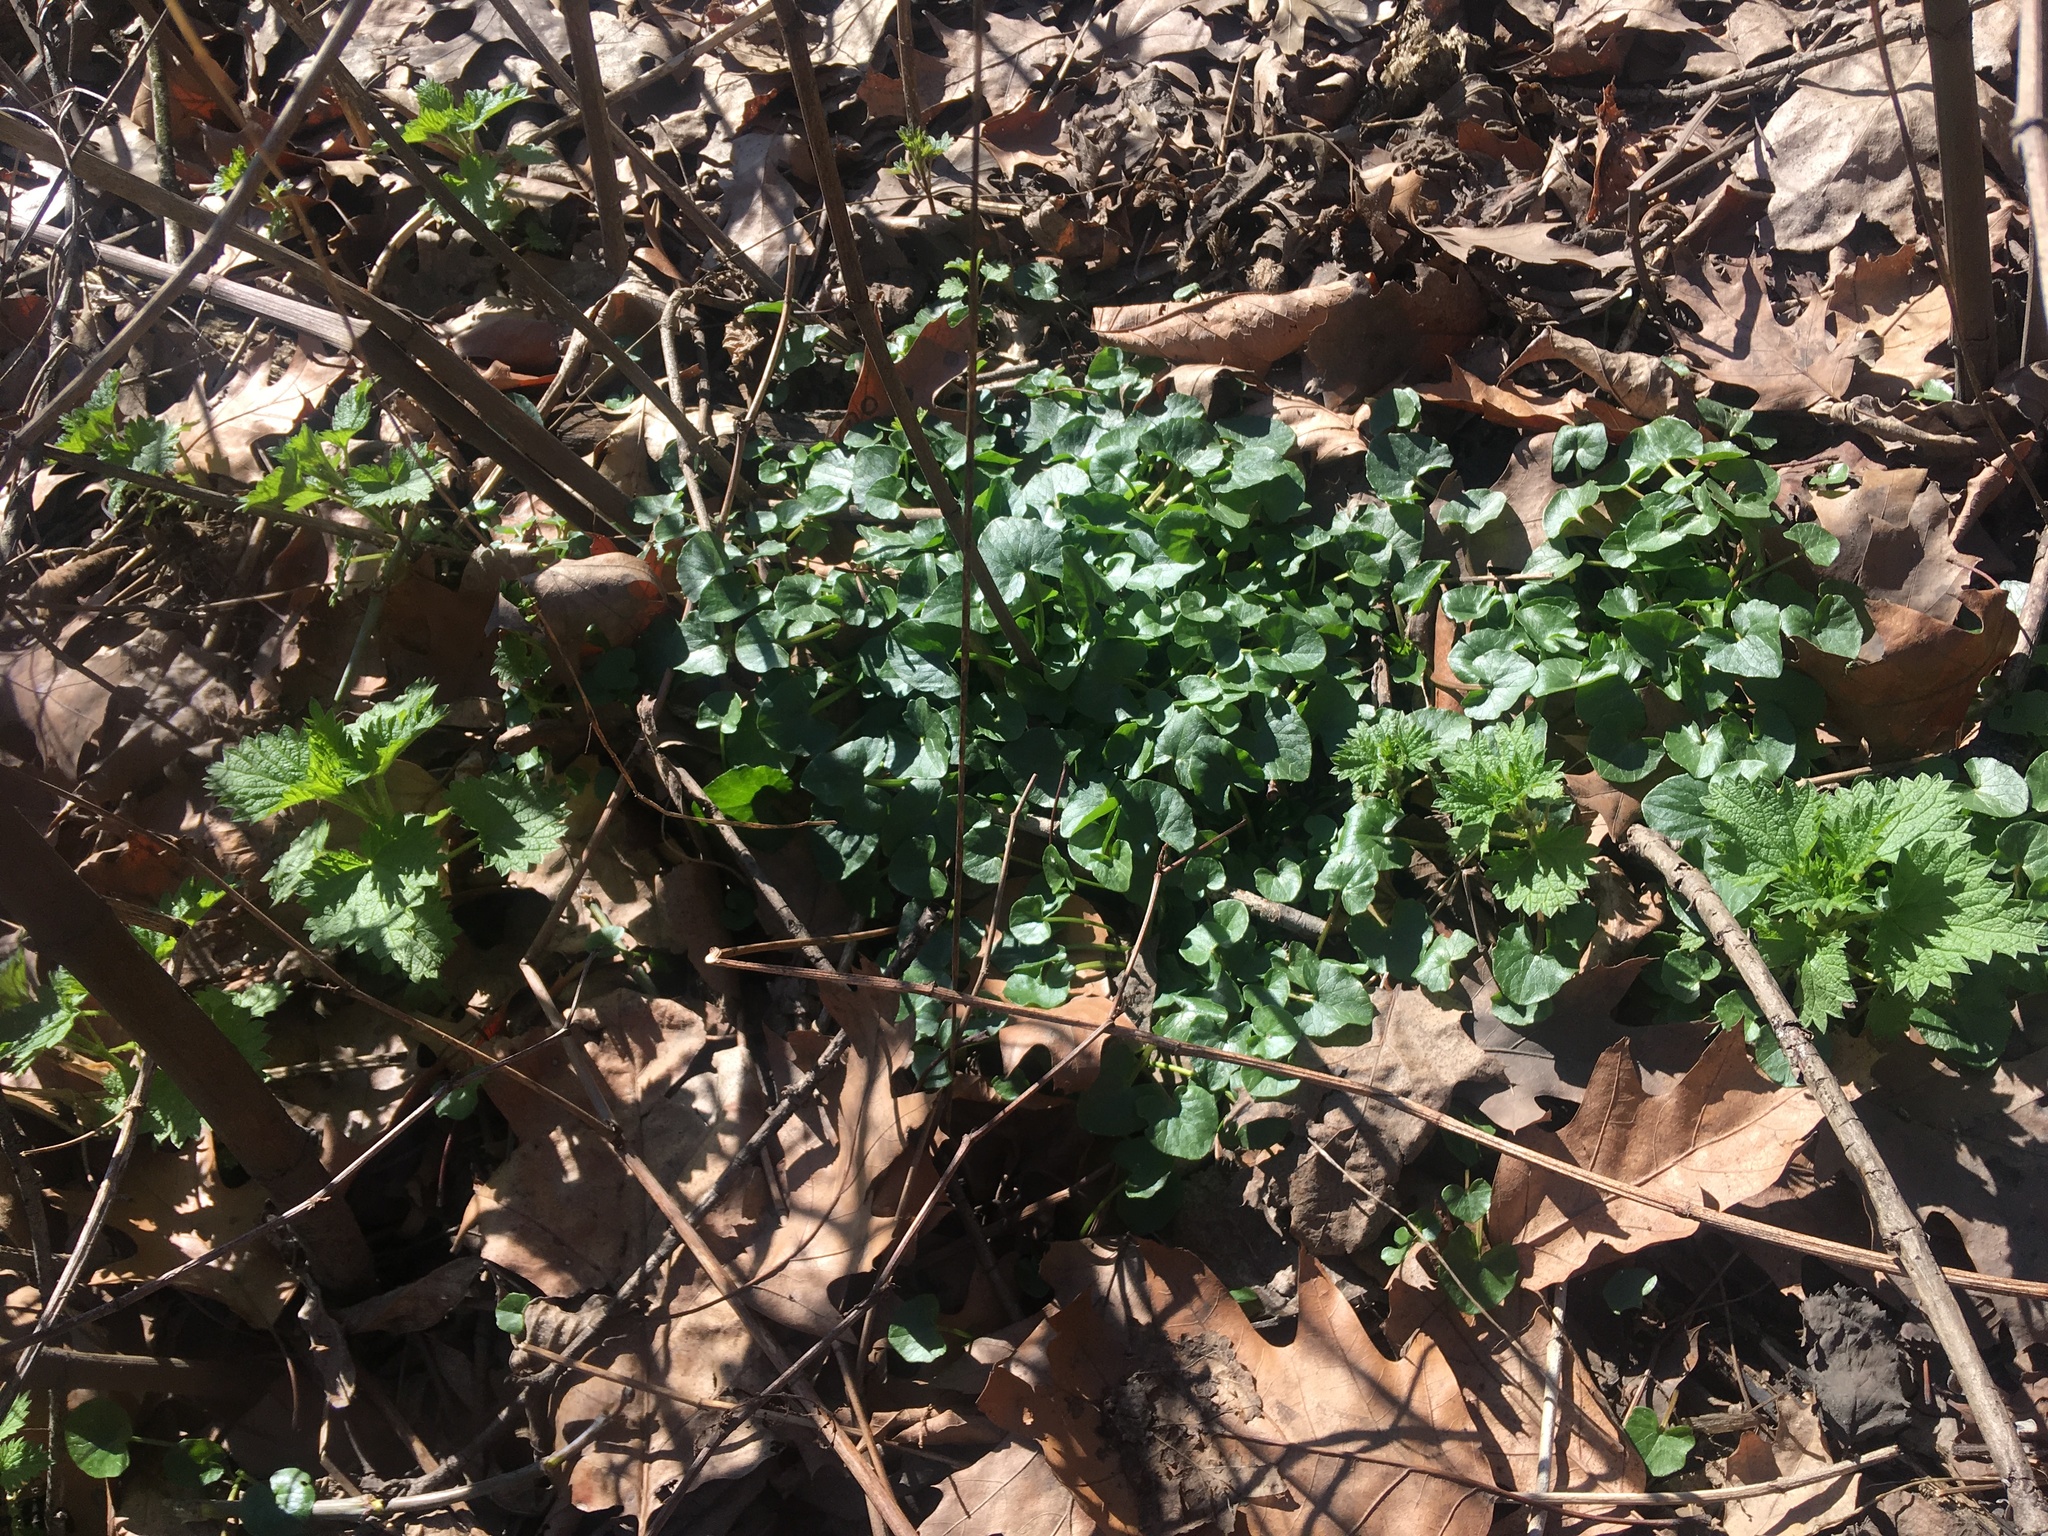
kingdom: Plantae
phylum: Tracheophyta
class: Magnoliopsida
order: Ranunculales
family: Ranunculaceae
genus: Ficaria
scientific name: Ficaria verna
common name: Lesser celandine
